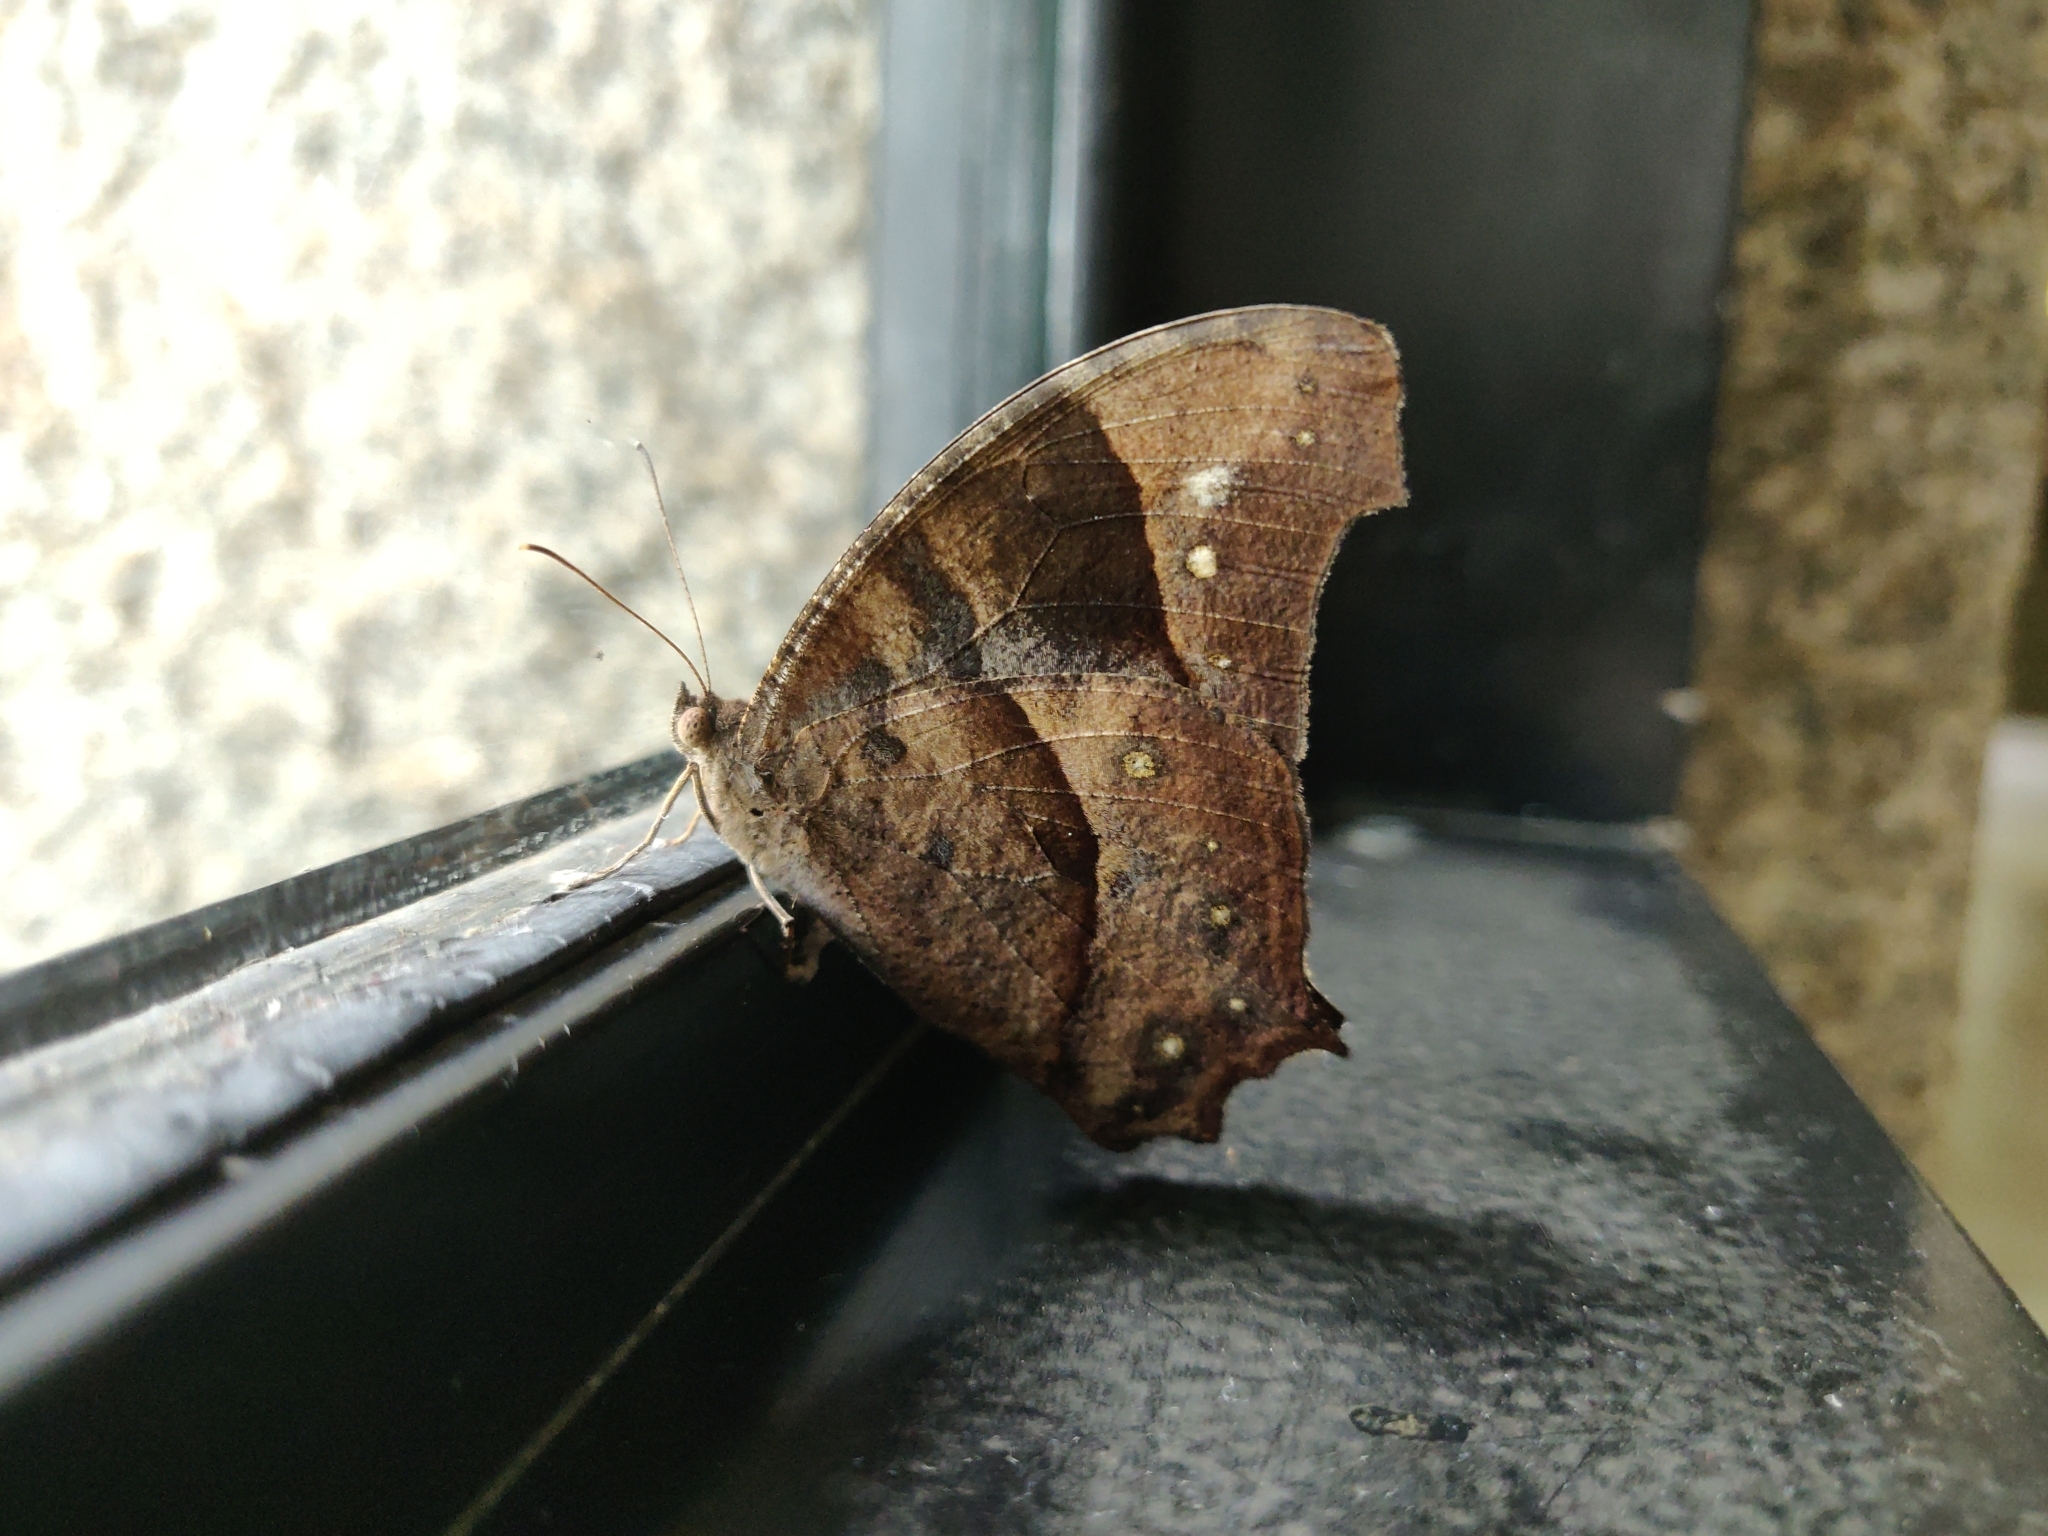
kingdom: Animalia
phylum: Arthropoda
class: Insecta
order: Lepidoptera
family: Nymphalidae
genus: Melanitis
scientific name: Melanitis leda
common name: Twilight brown
